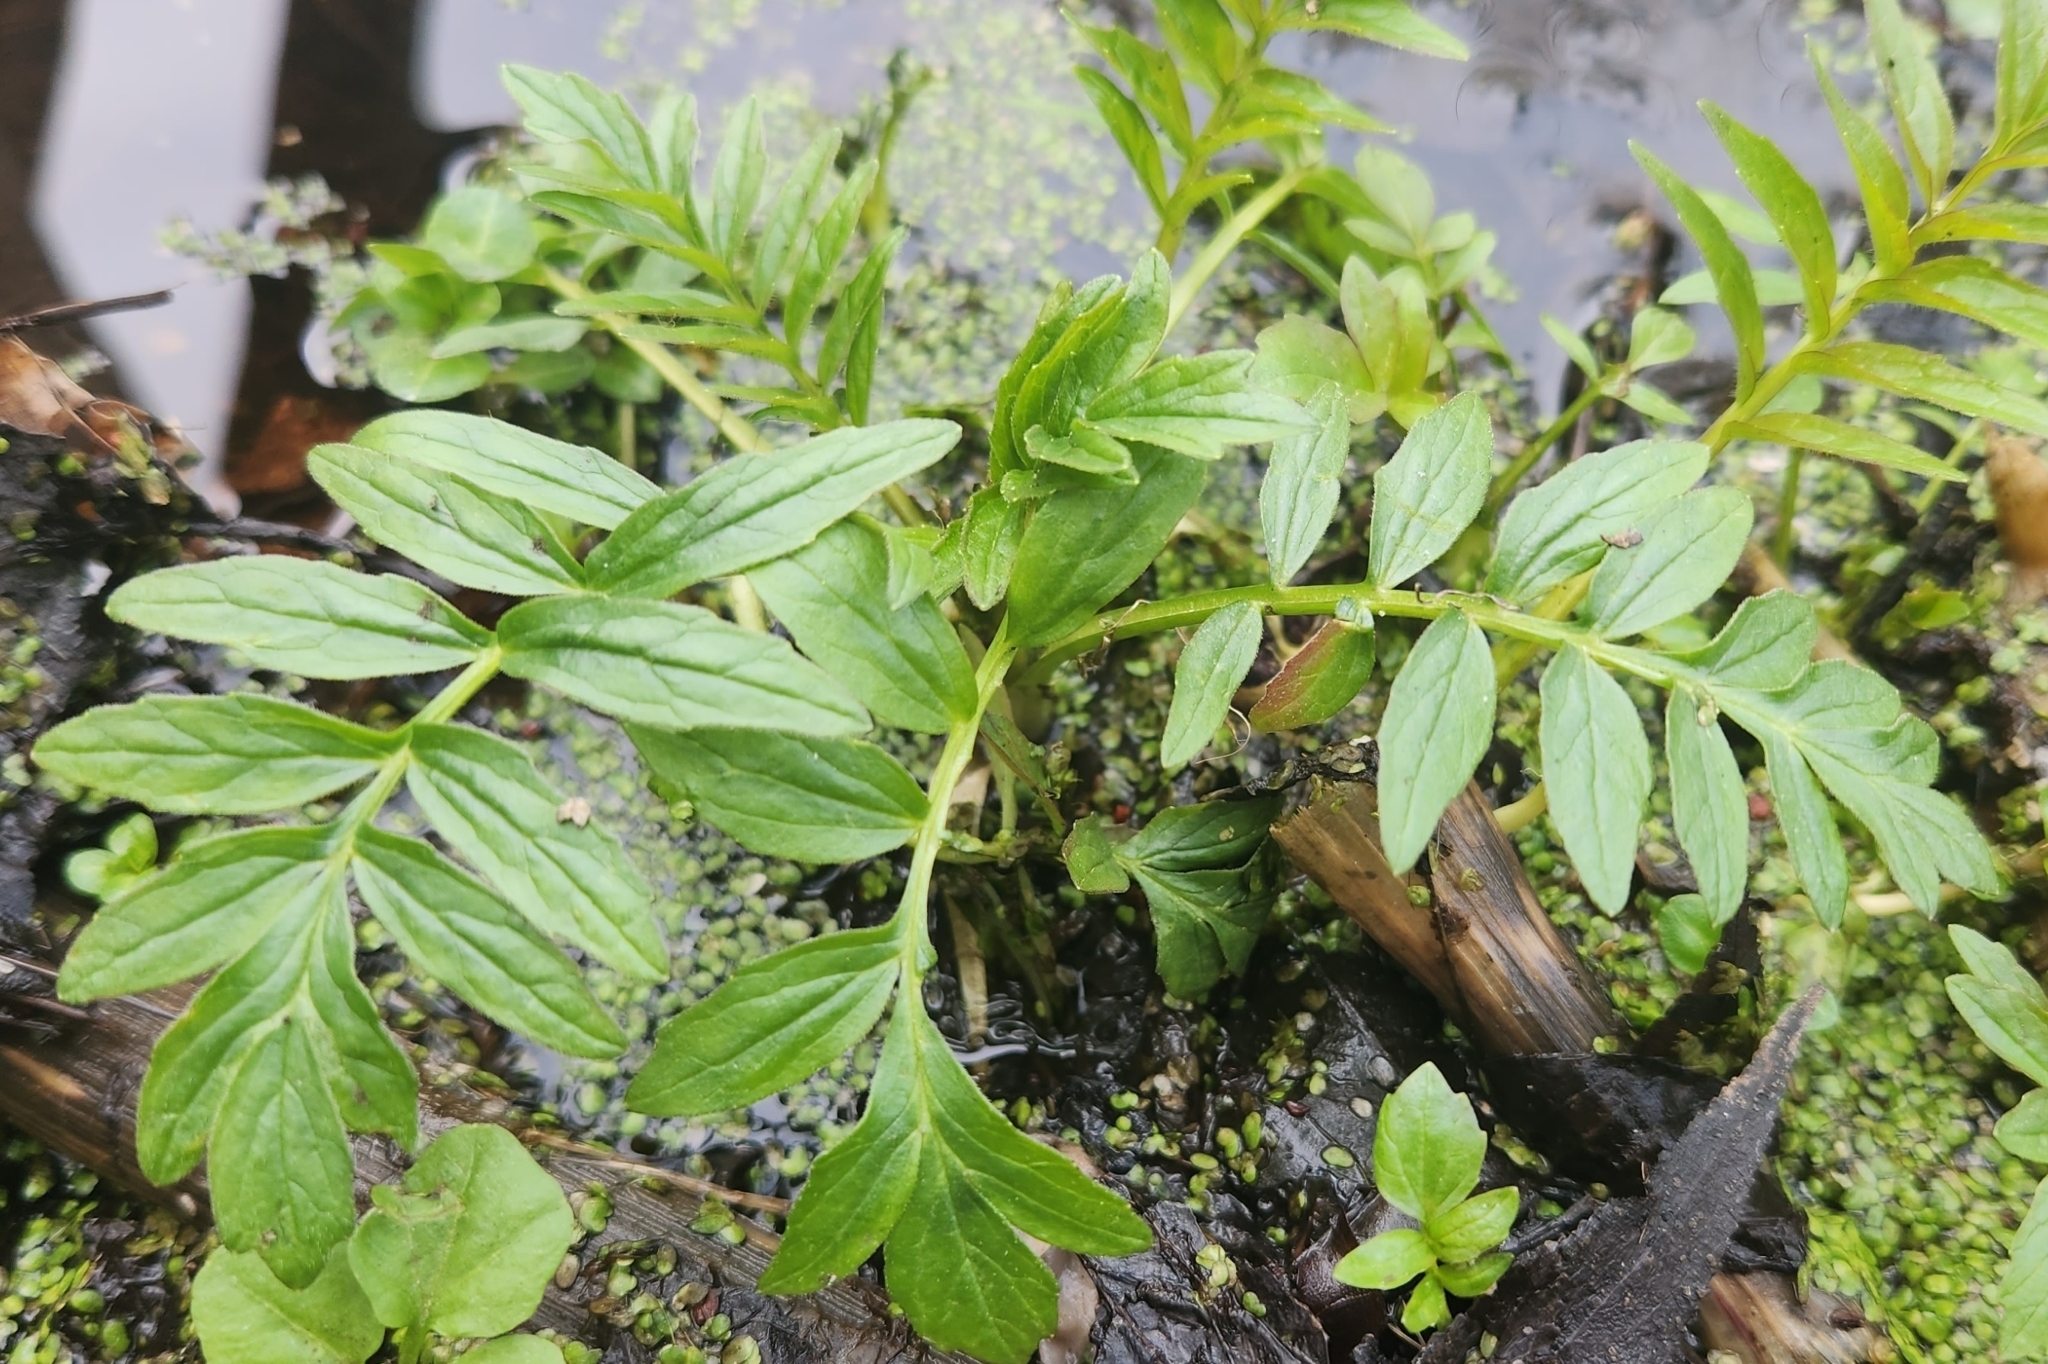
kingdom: Plantae
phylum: Tracheophyta
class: Magnoliopsida
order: Dipsacales
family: Caprifoliaceae
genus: Valeriana
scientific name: Valeriana officinalis
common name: Common valerian
